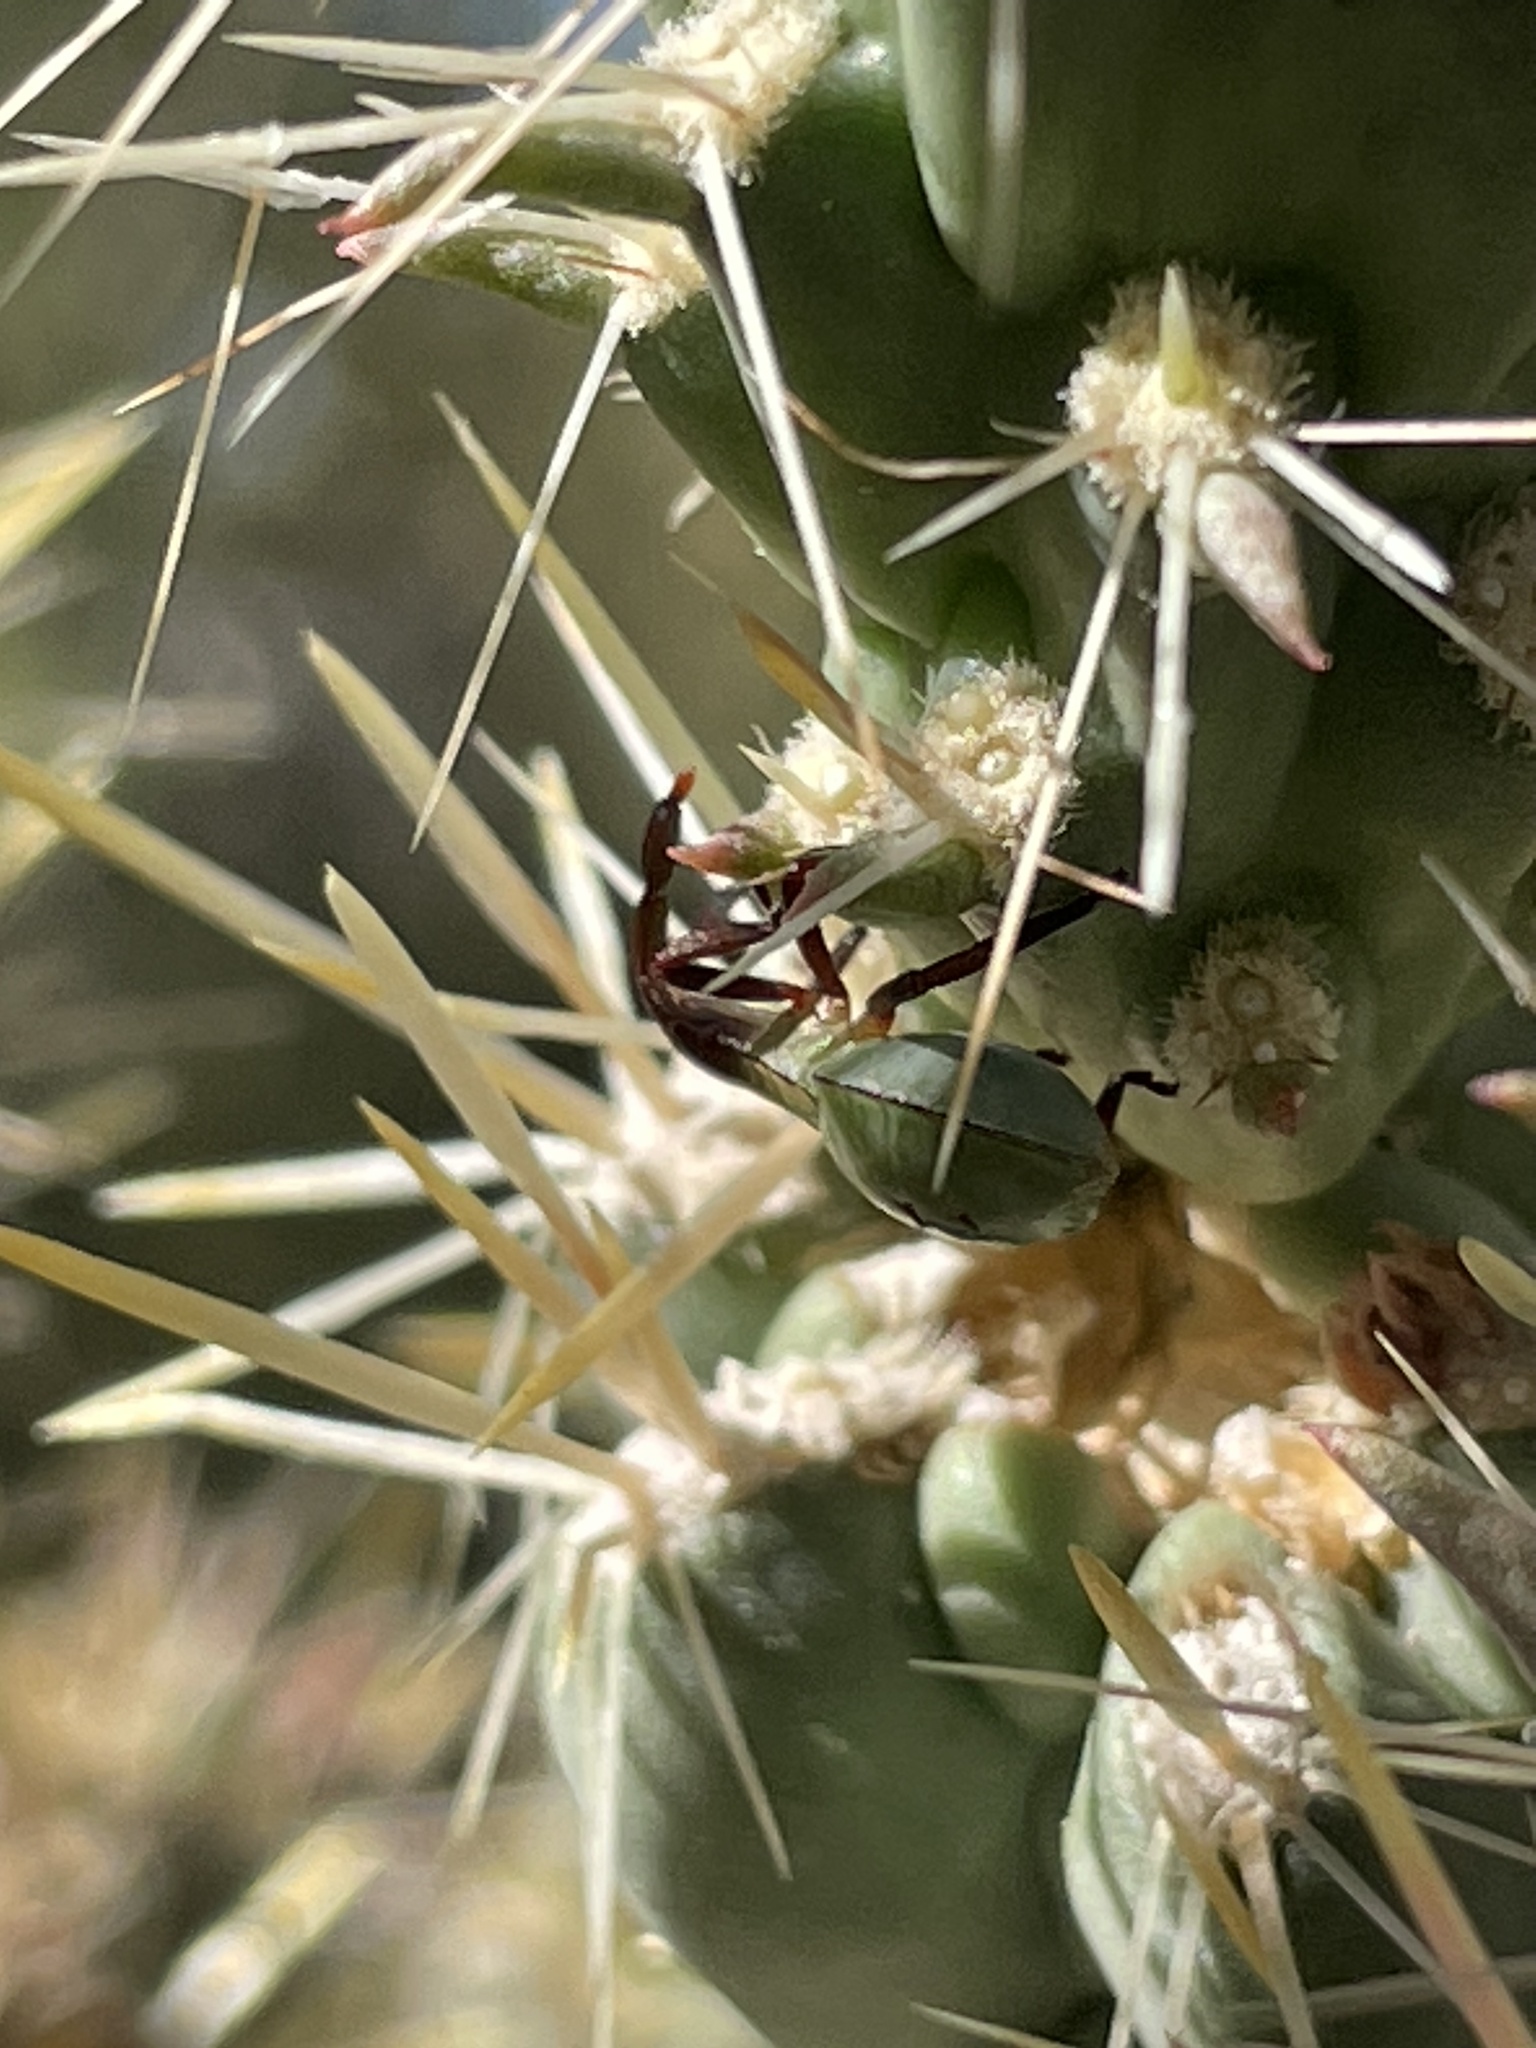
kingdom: Animalia
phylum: Arthropoda
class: Insecta
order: Hemiptera
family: Coreidae
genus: Chelinidea
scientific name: Chelinidea vittiger
